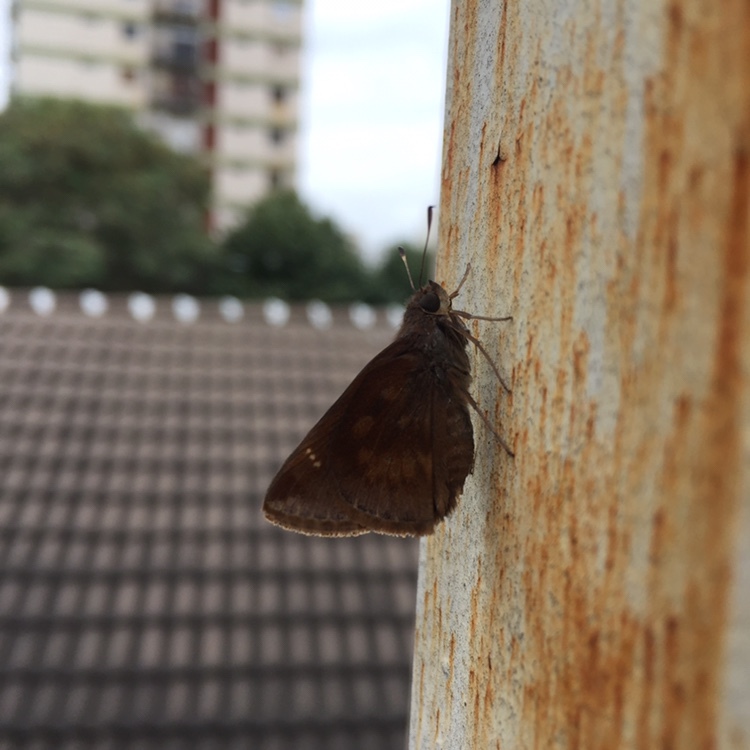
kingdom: Animalia
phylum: Arthropoda
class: Insecta
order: Lepidoptera
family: Hesperiidae
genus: Quinta
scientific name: Quinta cannae
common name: Canna skipper
